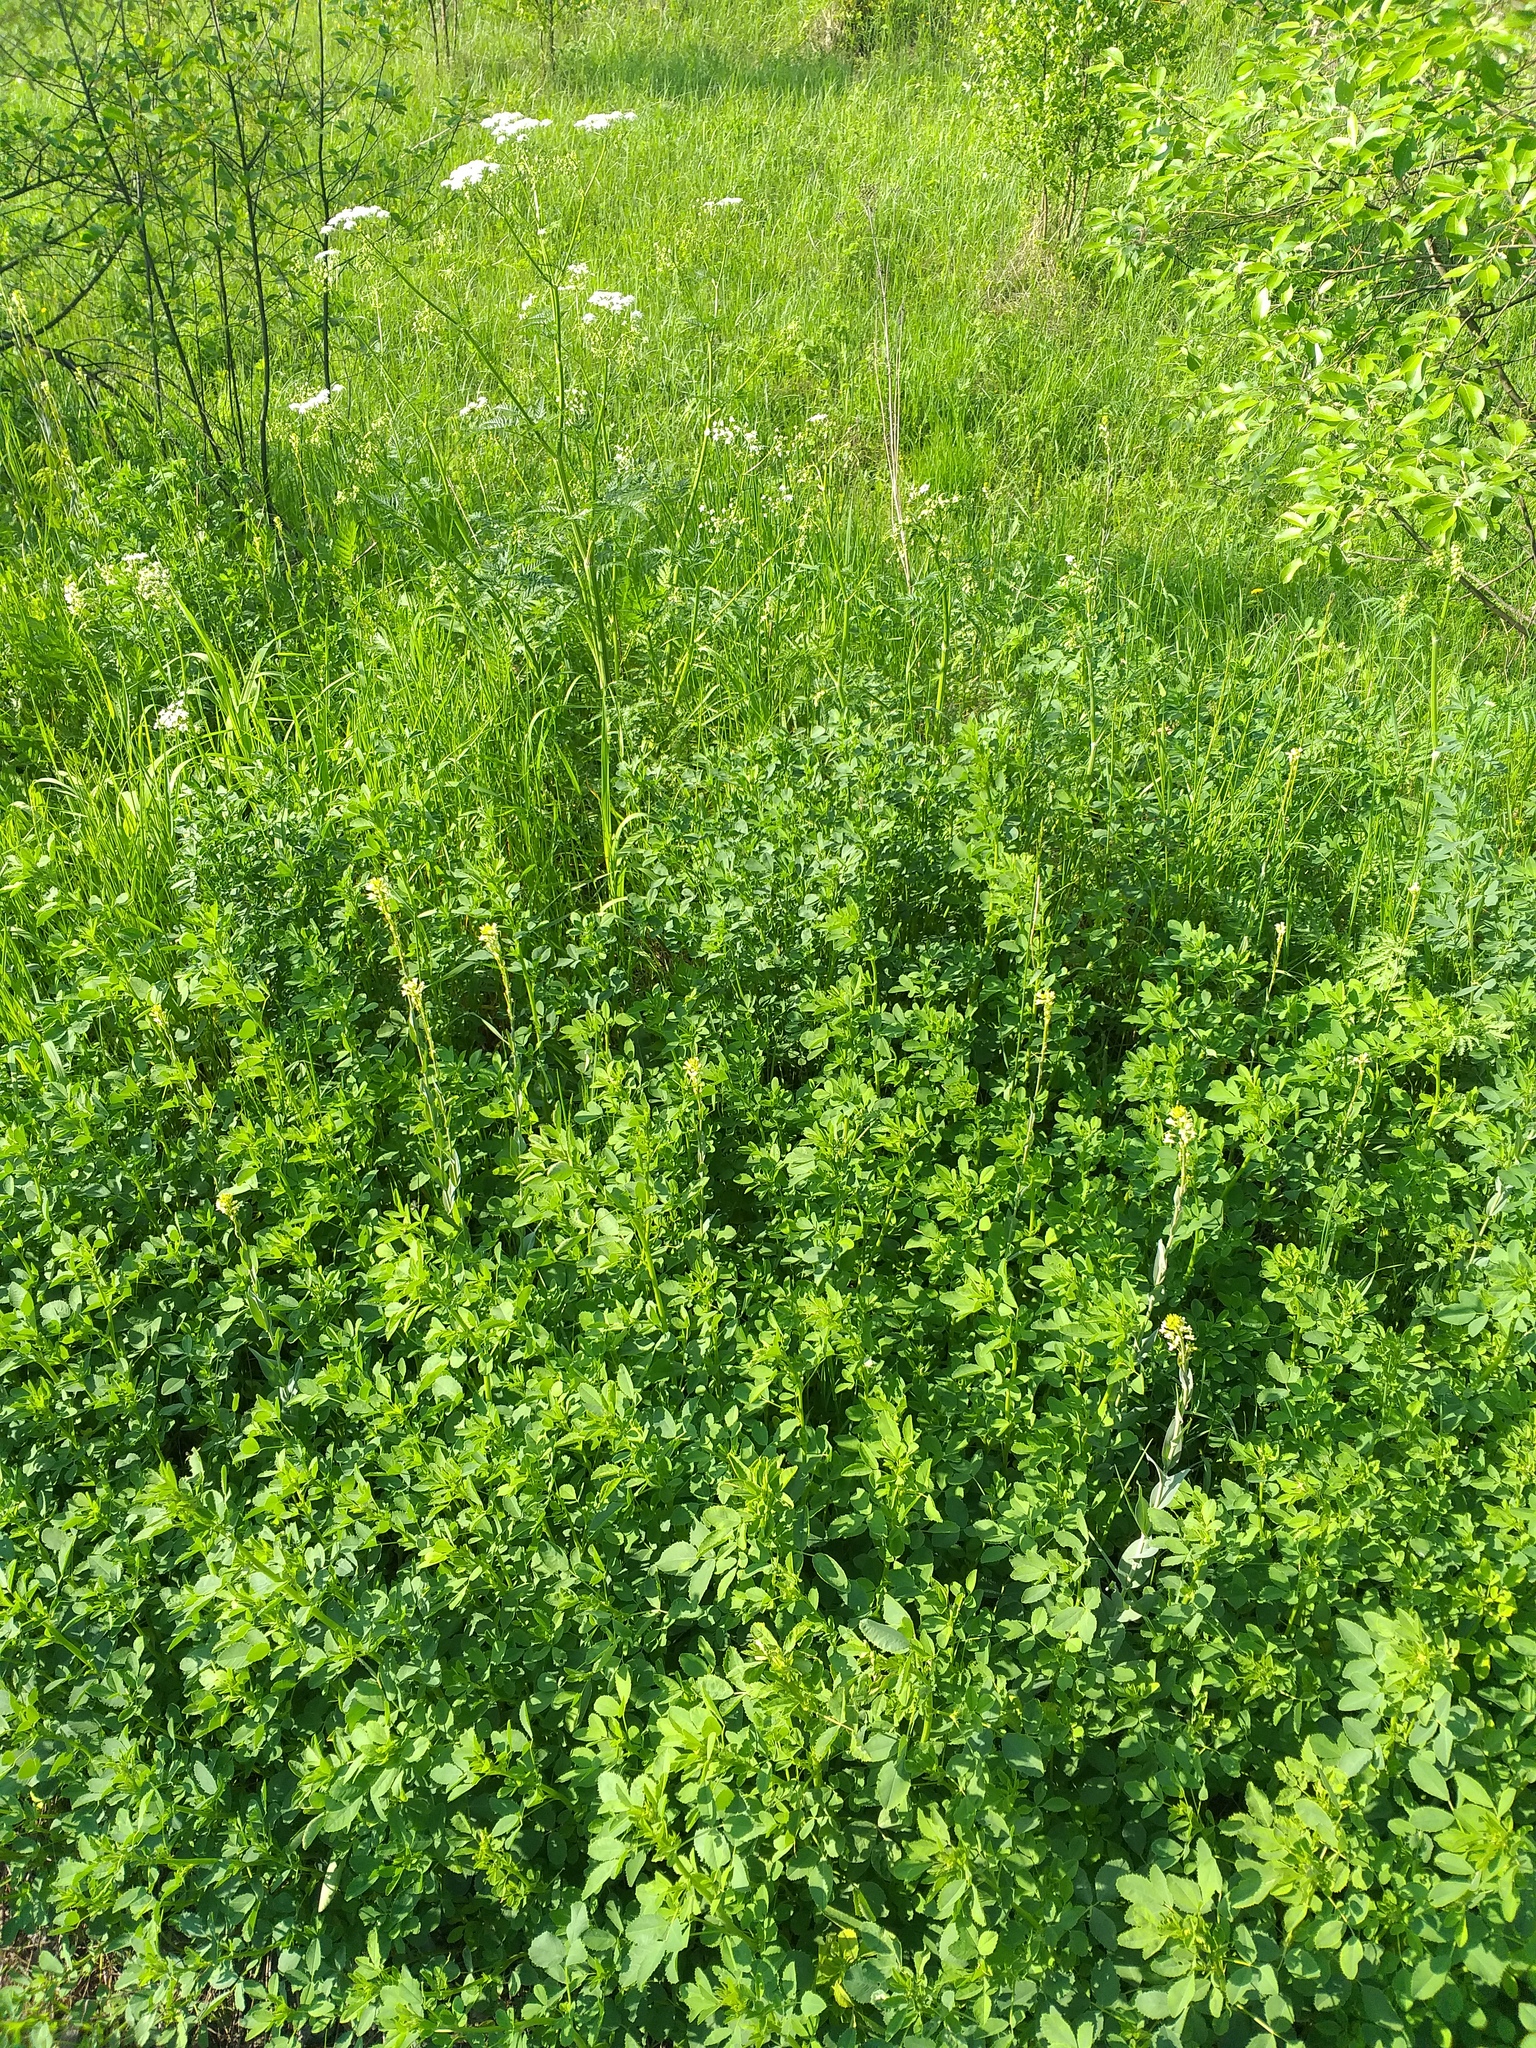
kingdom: Plantae
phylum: Tracheophyta
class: Magnoliopsida
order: Brassicales
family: Brassicaceae
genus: Turritis
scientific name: Turritis glabra
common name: Tower rockcress
